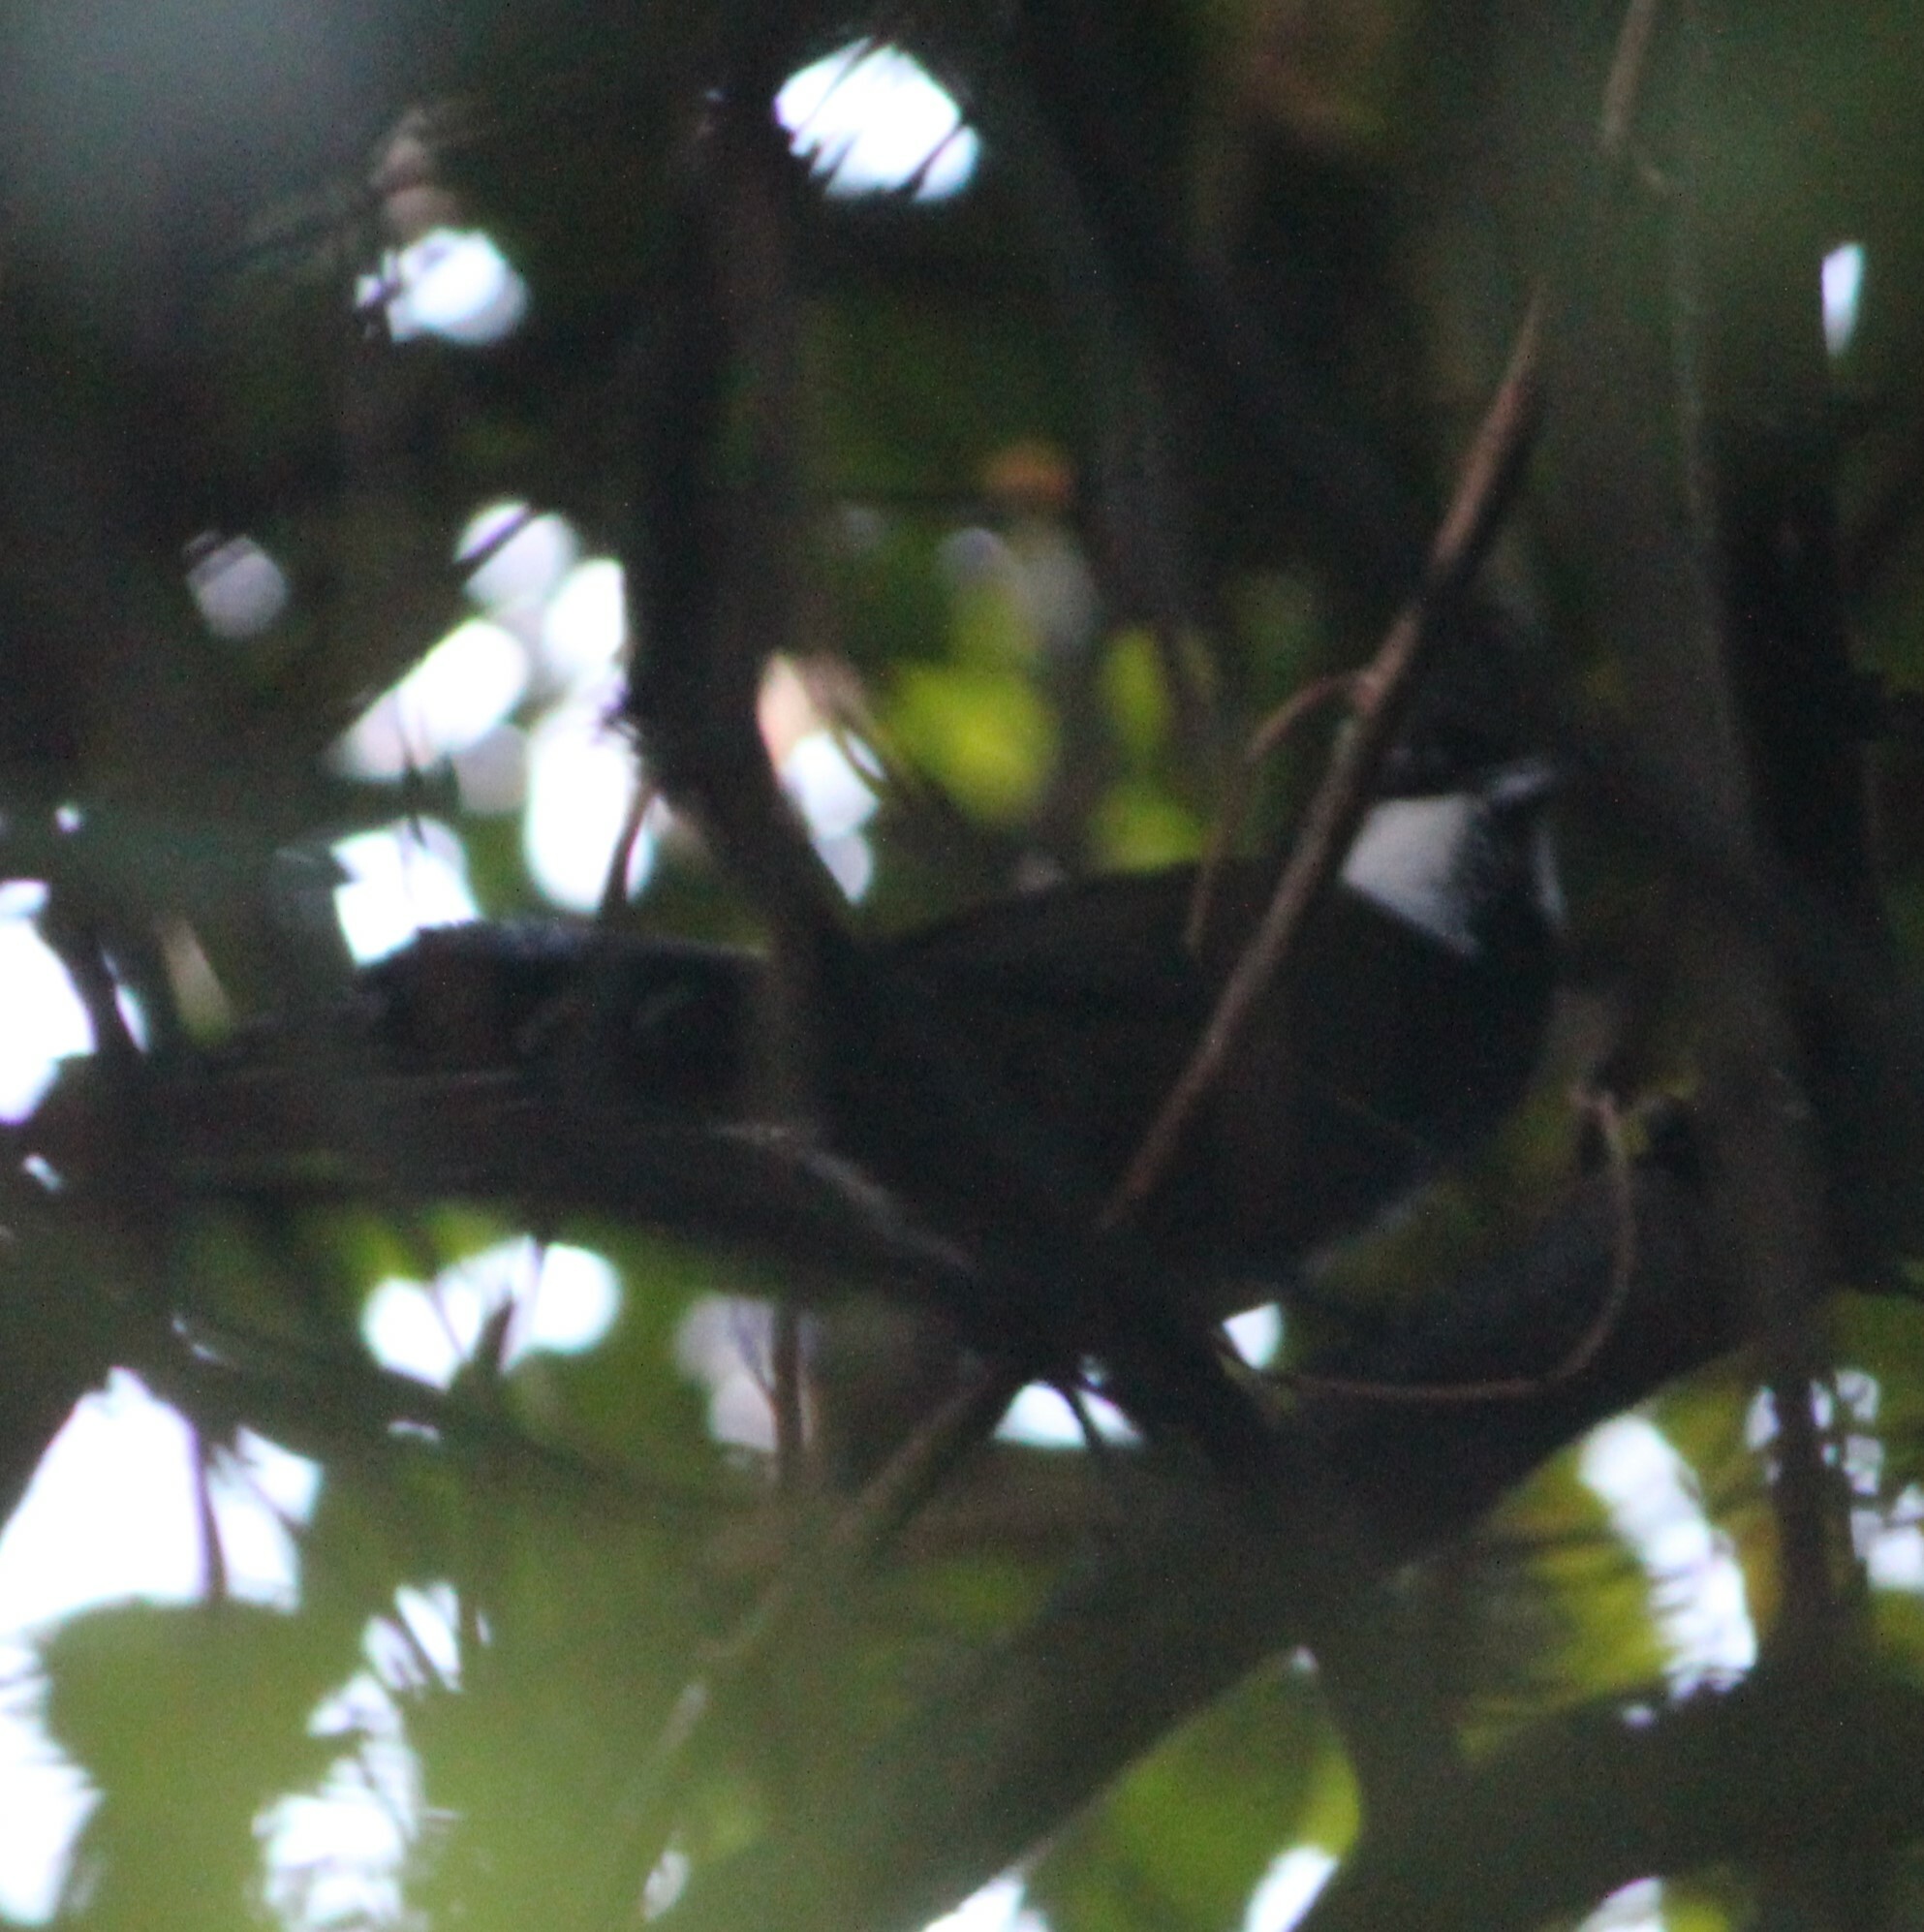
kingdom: Animalia
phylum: Chordata
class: Aves
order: Passeriformes
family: Psophodidae
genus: Psophodes
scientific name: Psophodes olivaceus
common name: Eastern whipbird
